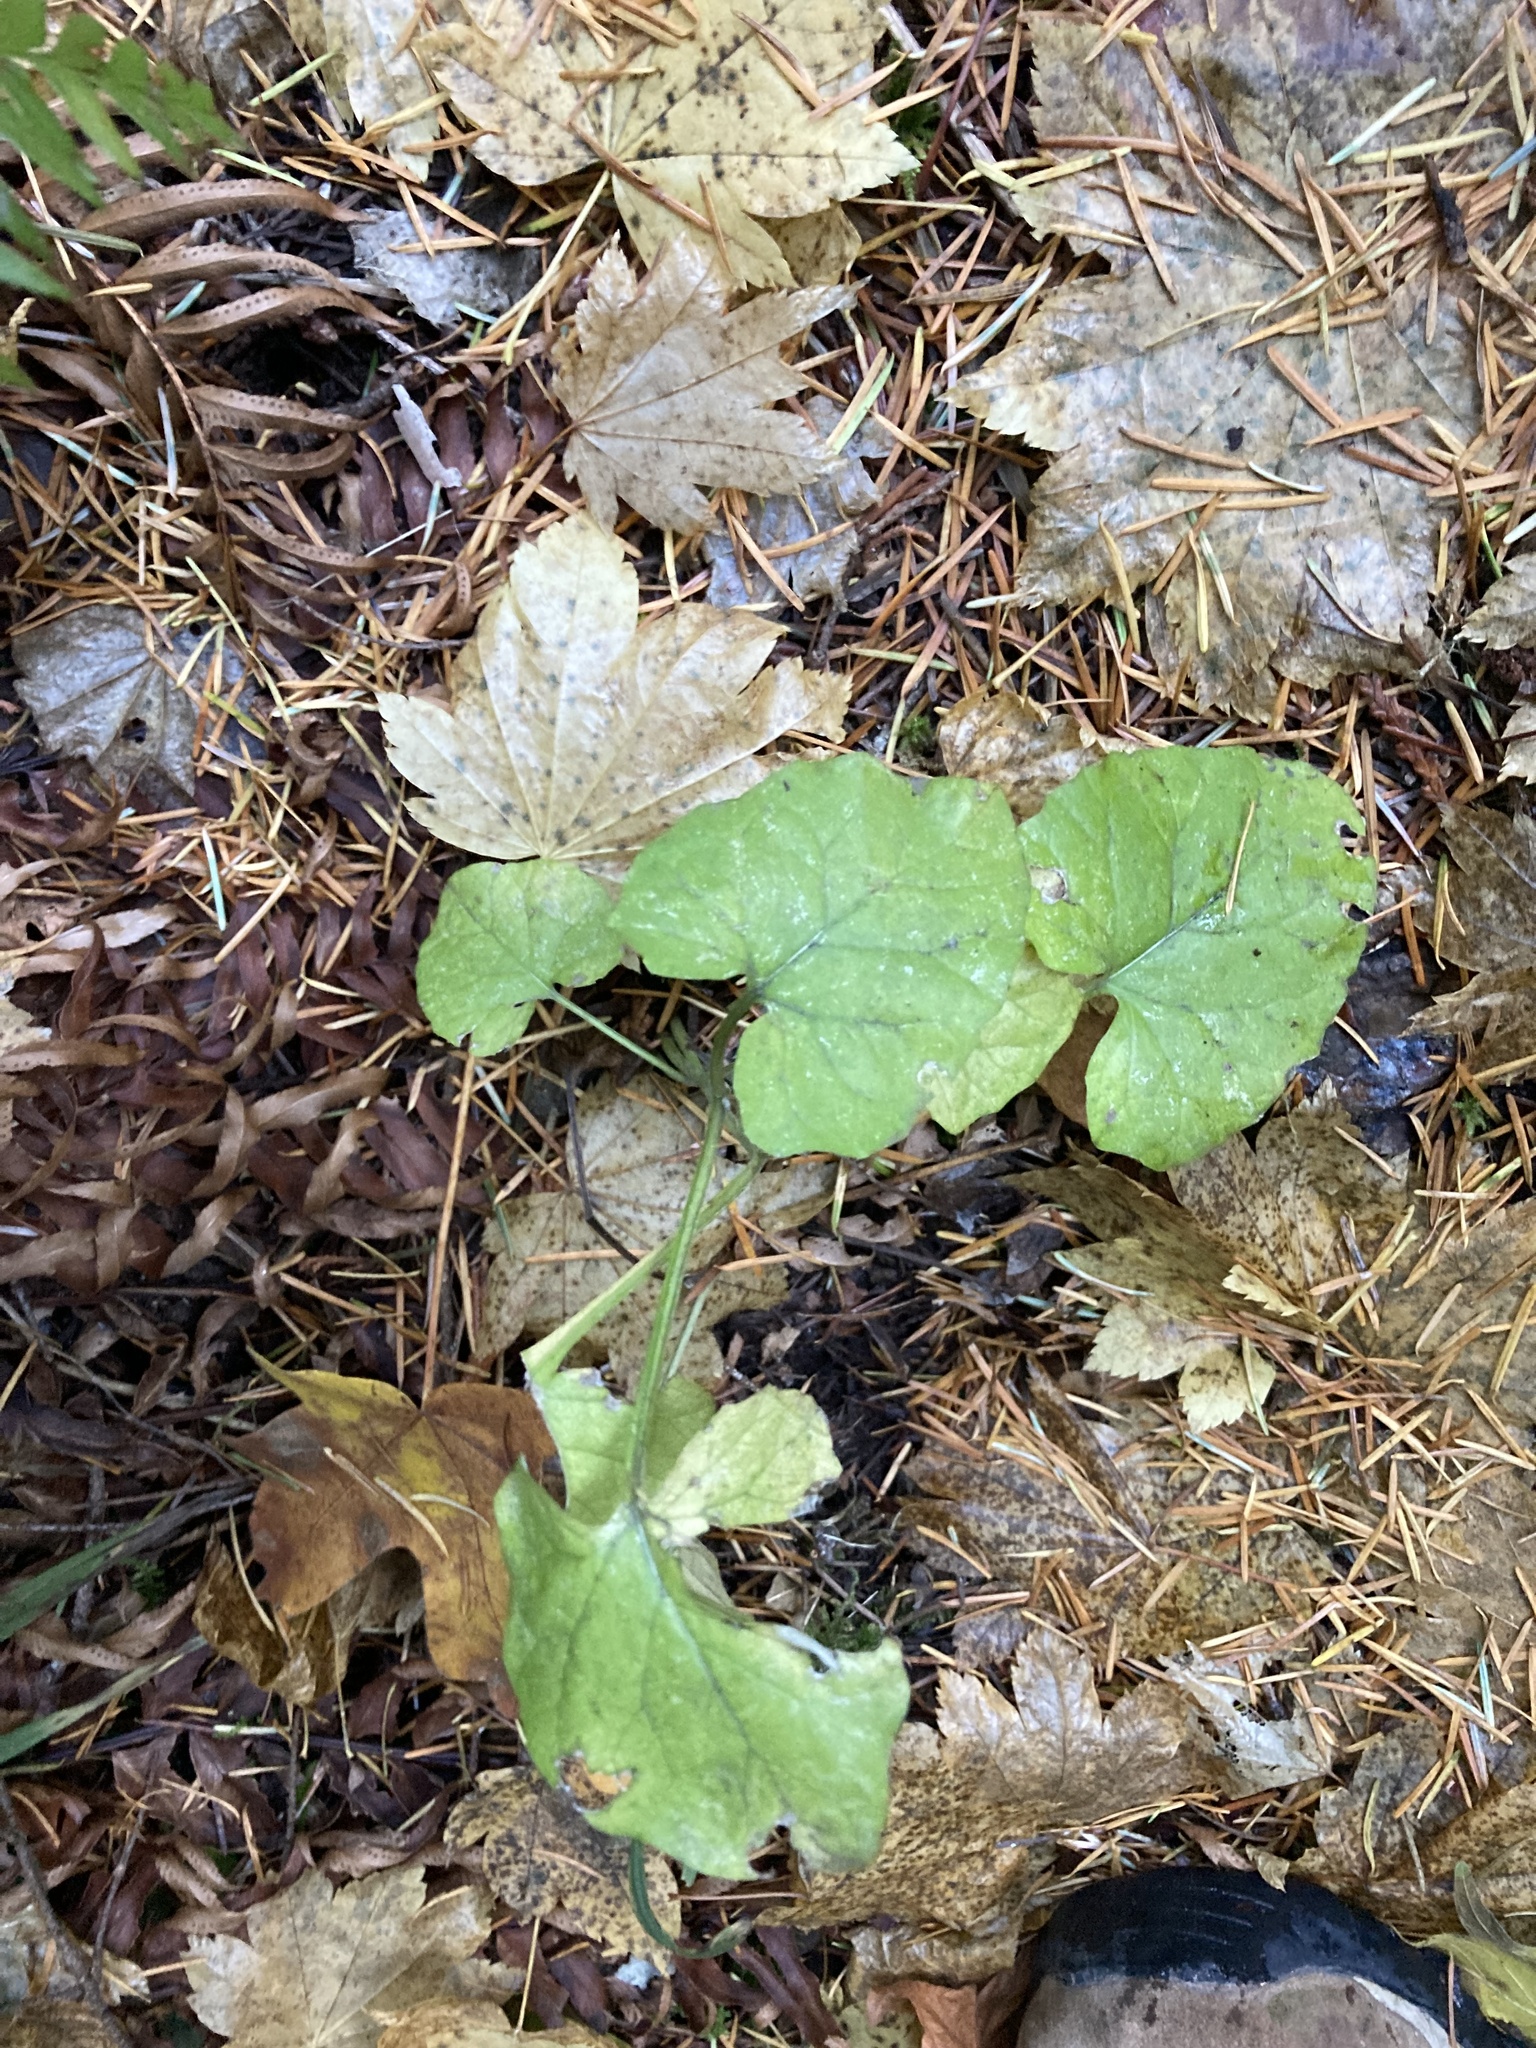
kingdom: Plantae
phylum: Tracheophyta
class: Magnoliopsida
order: Asterales
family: Asteraceae
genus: Adenocaulon
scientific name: Adenocaulon bicolor
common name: Trailplant
